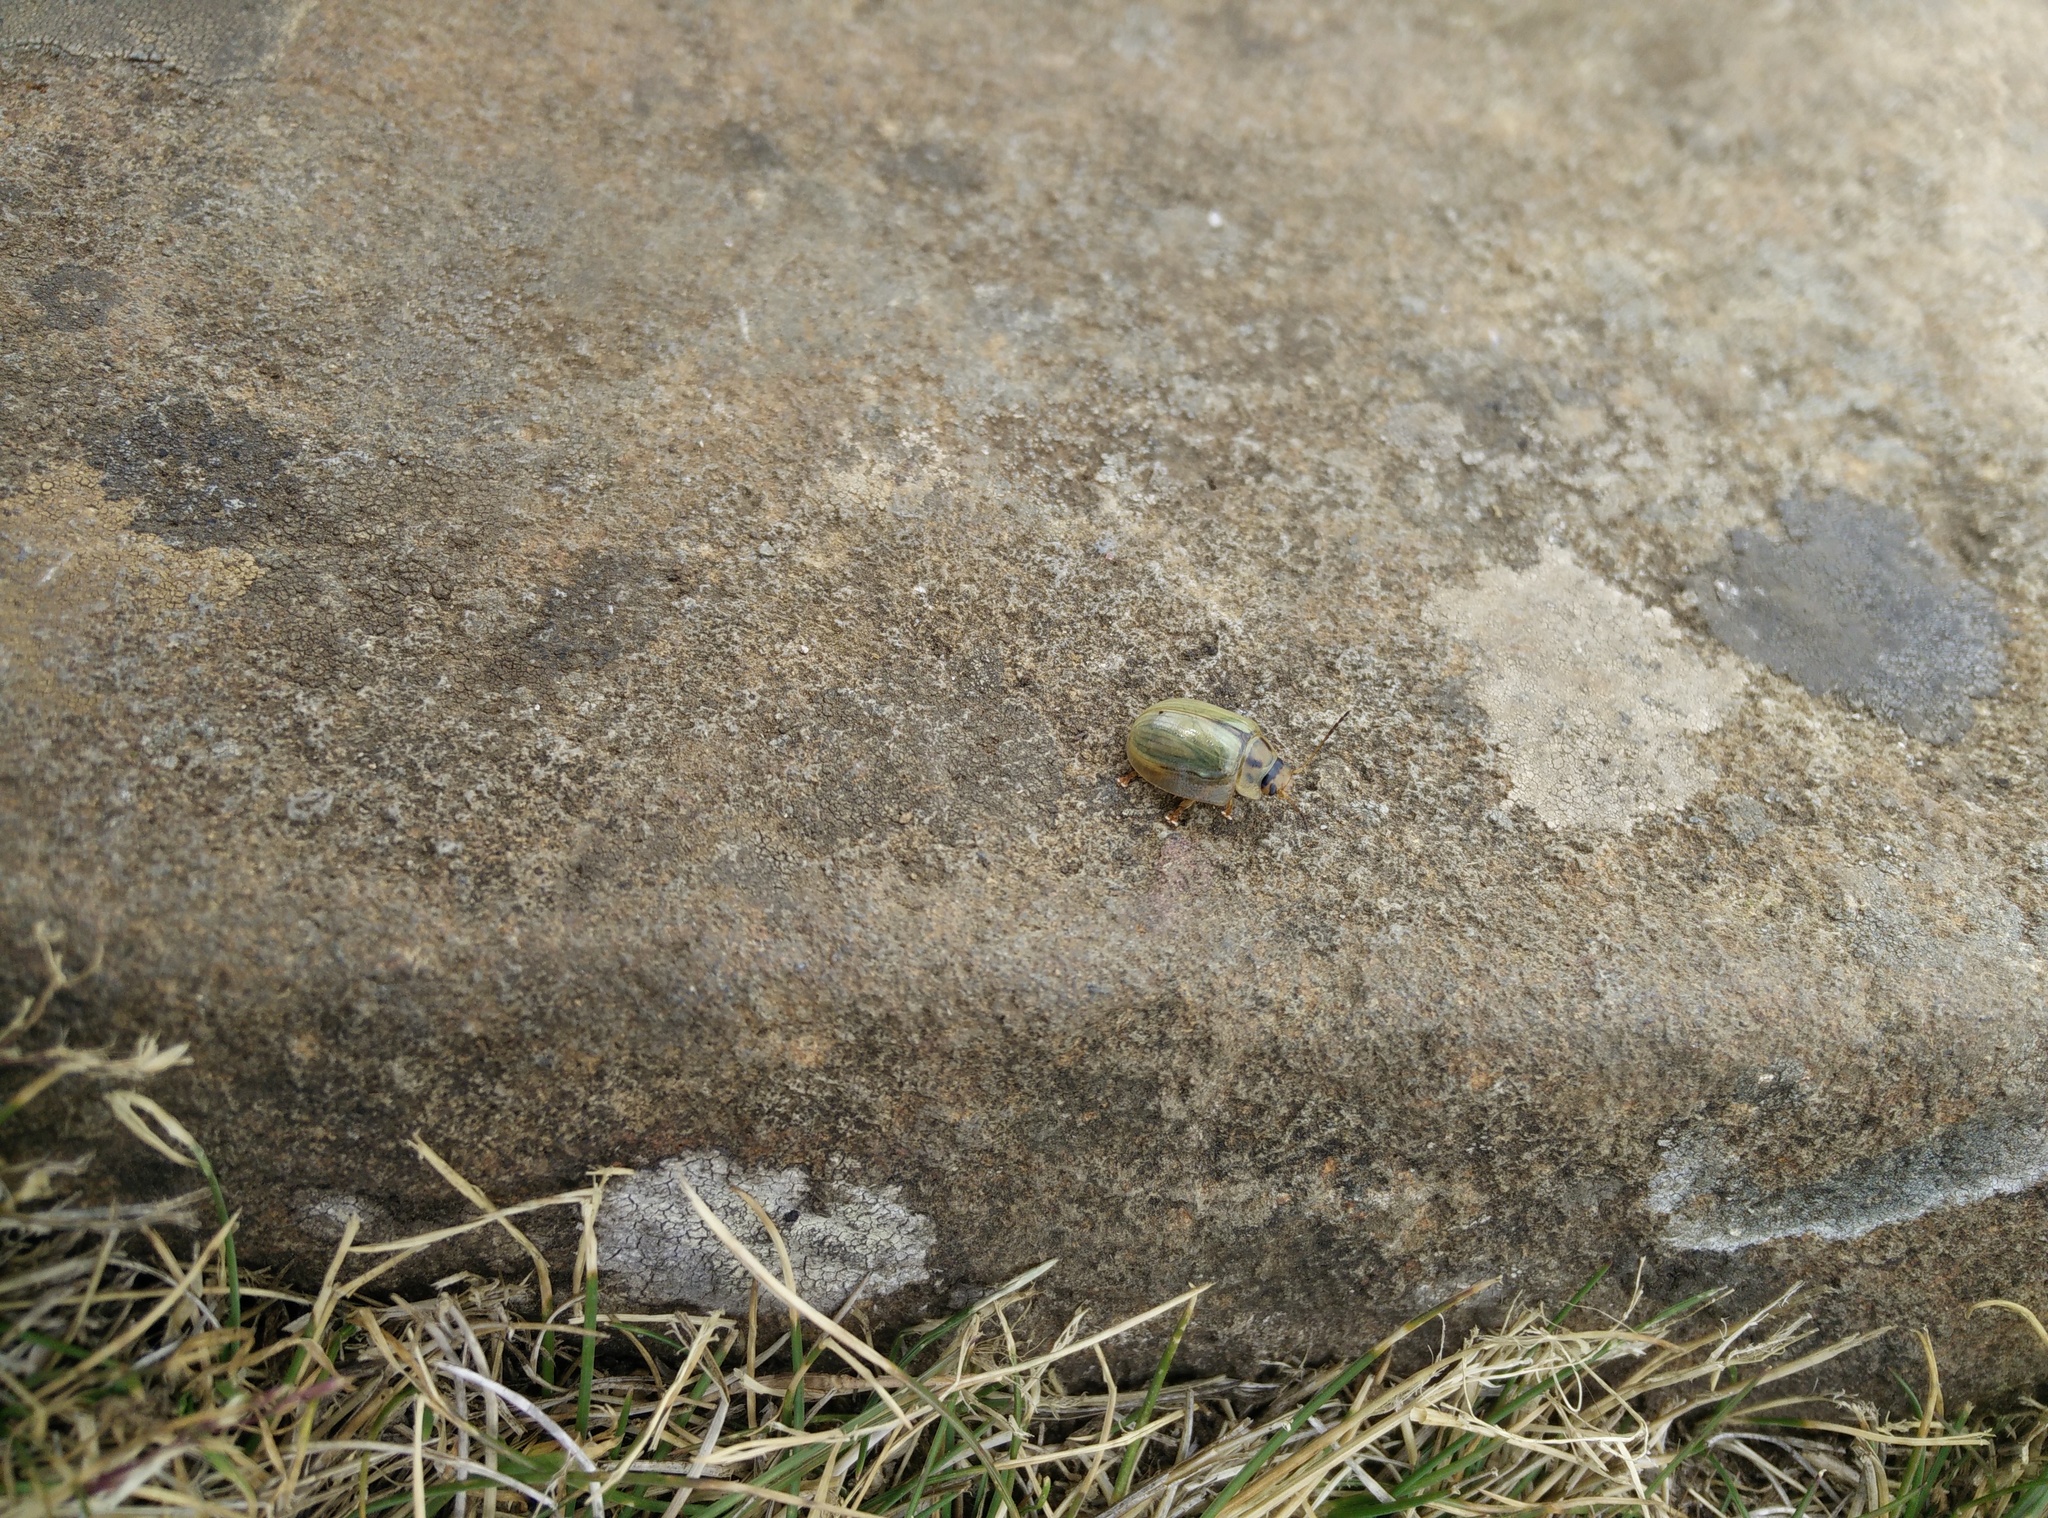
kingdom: Animalia
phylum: Arthropoda
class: Insecta
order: Coleoptera
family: Chrysomelidae
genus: Paropsisterna
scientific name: Paropsisterna bimaculata
